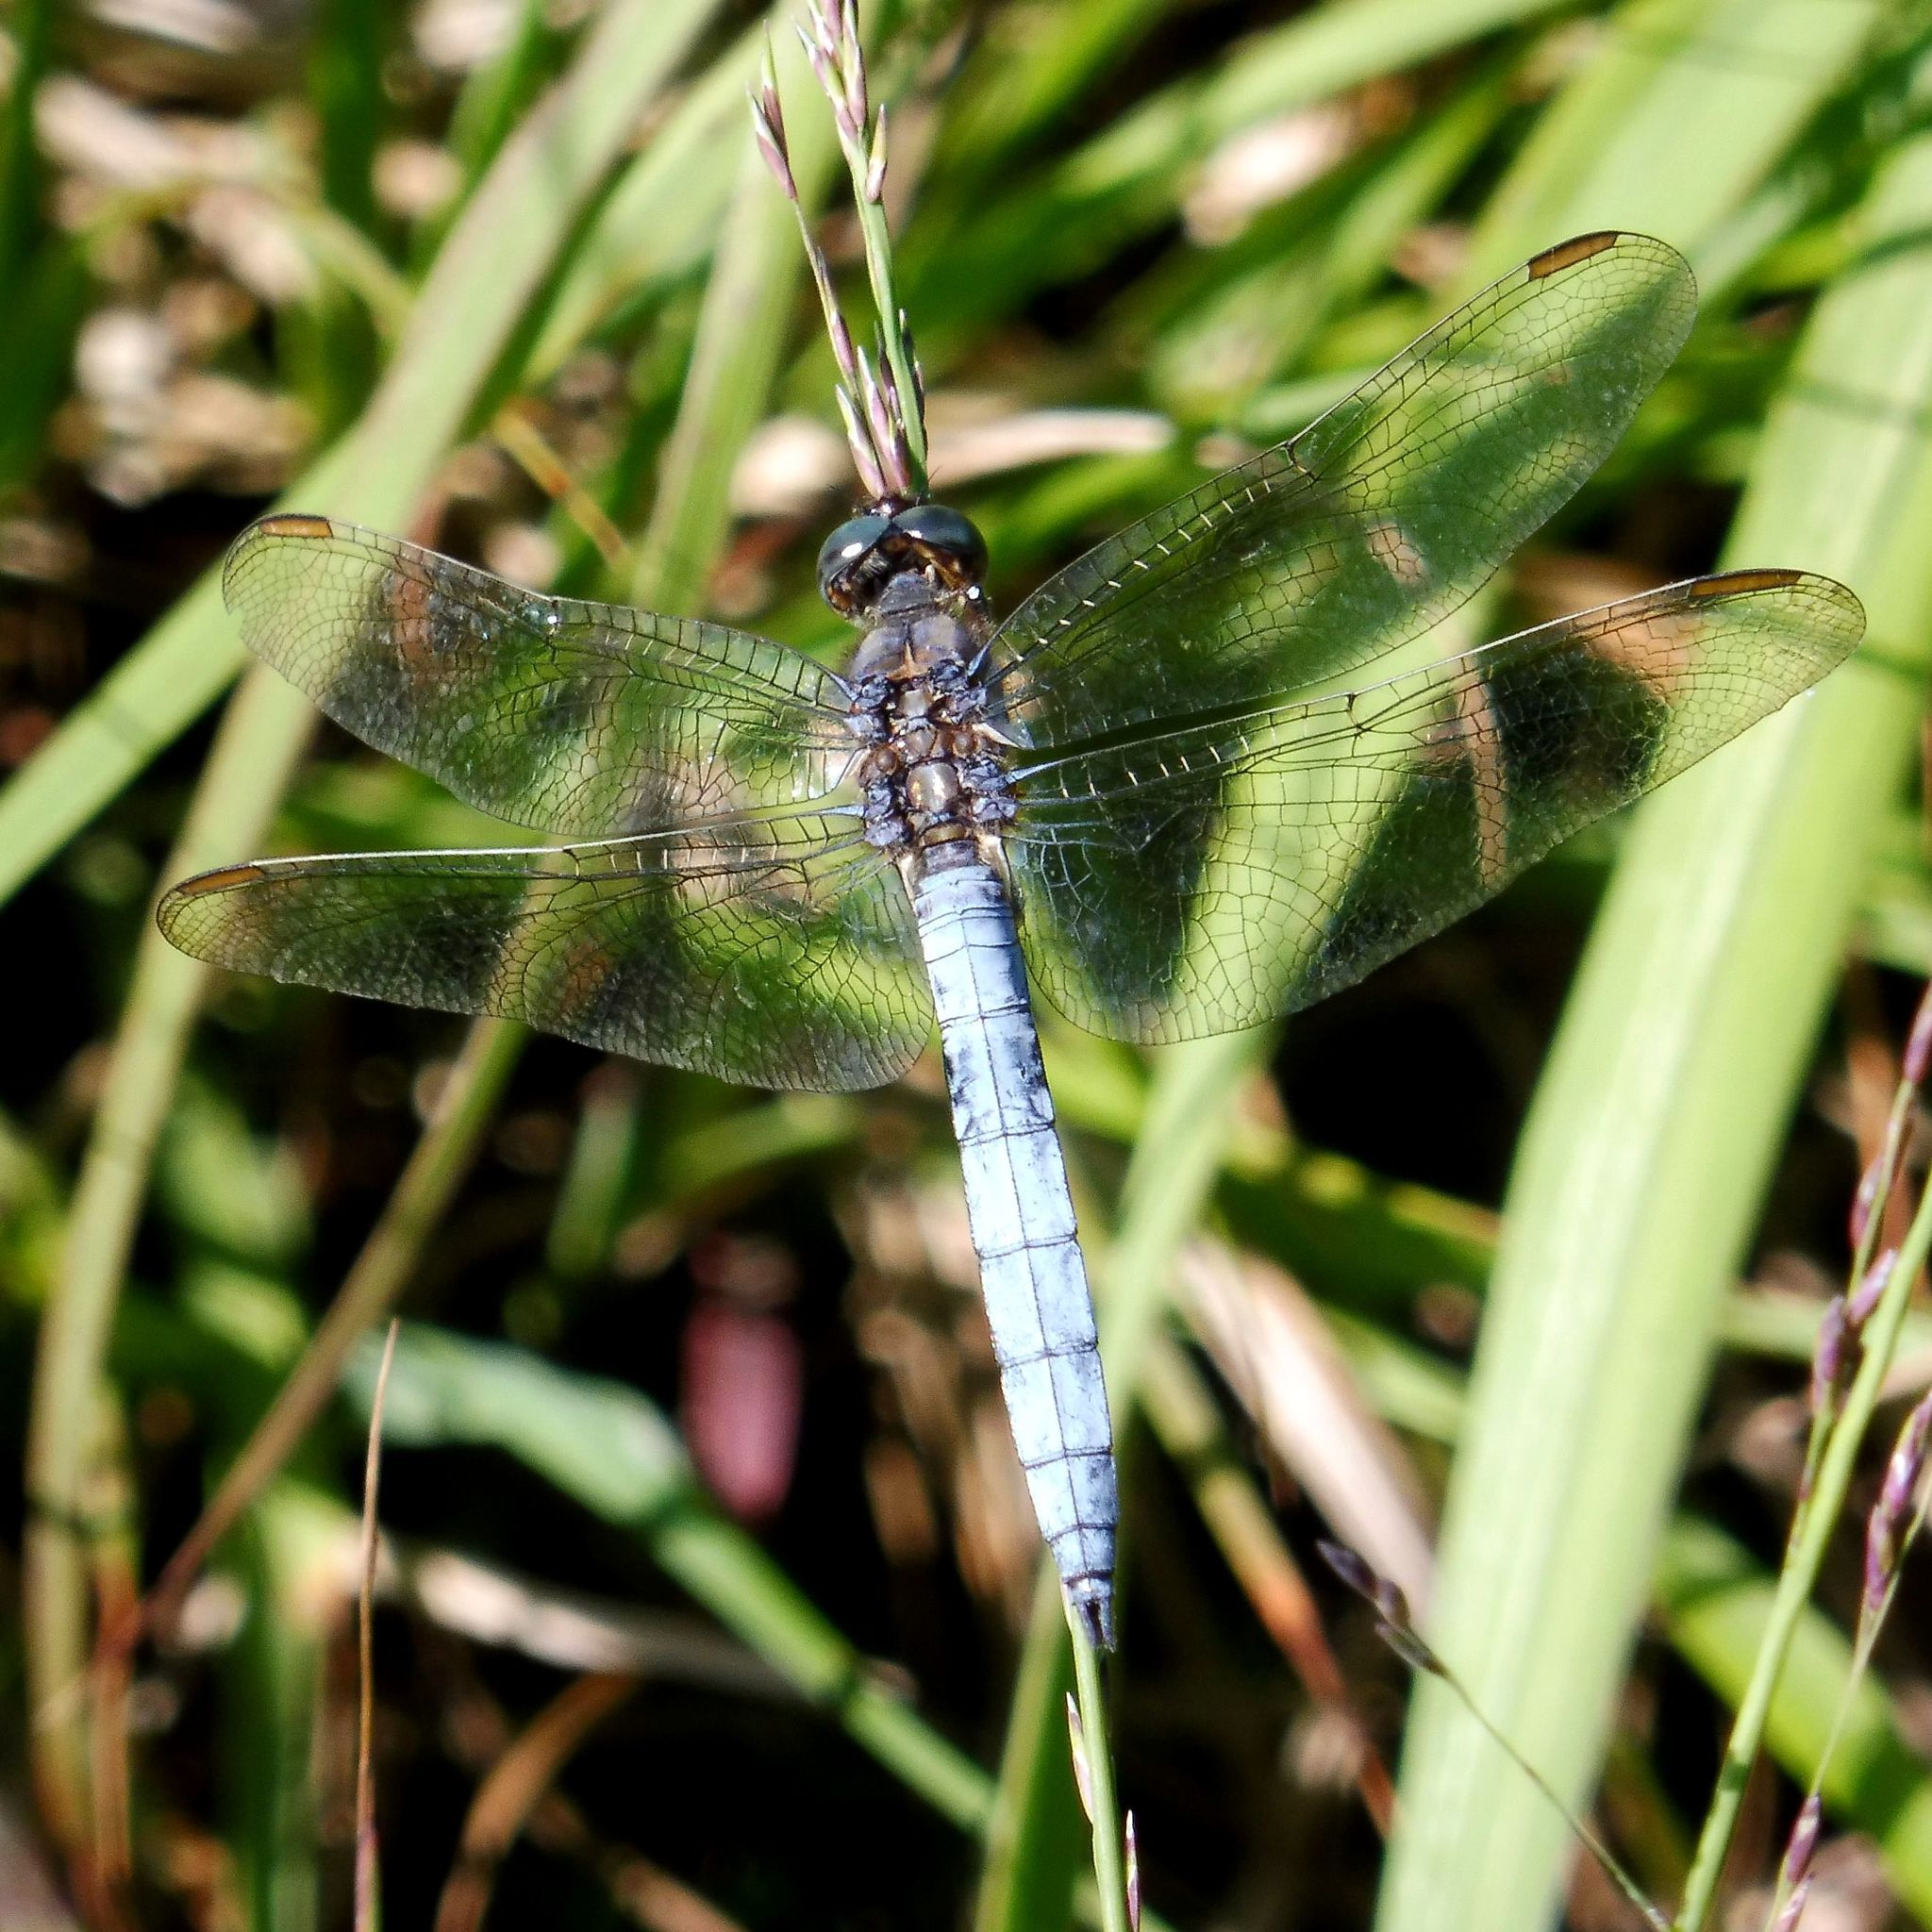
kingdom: Animalia
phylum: Arthropoda
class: Insecta
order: Odonata
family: Libellulidae
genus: Orthetrum
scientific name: Orthetrum coerulescens
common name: Keeled skimmer
